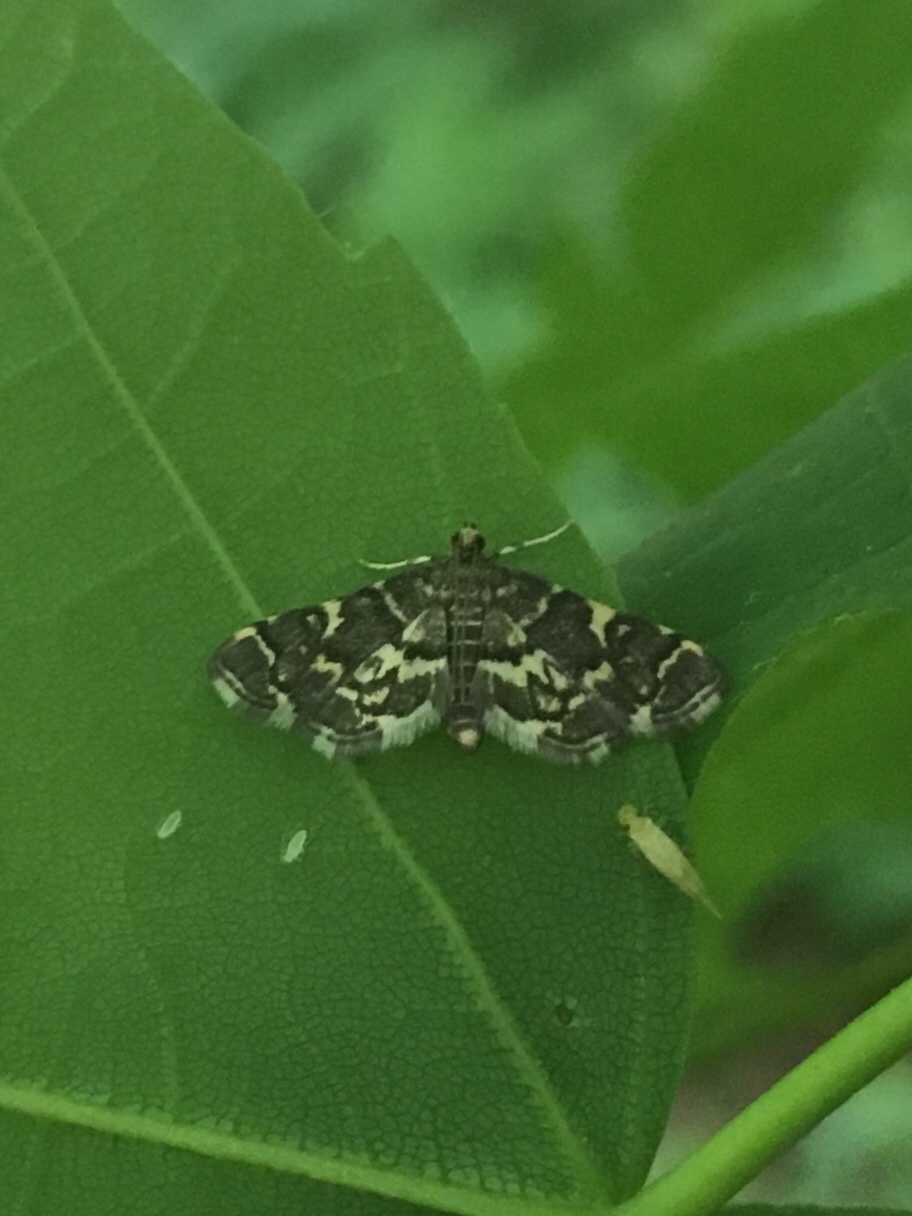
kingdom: Animalia
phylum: Arthropoda
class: Insecta
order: Lepidoptera
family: Crambidae
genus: Anageshna
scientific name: Anageshna primordialis
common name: Yellow-spotted webworm moth
